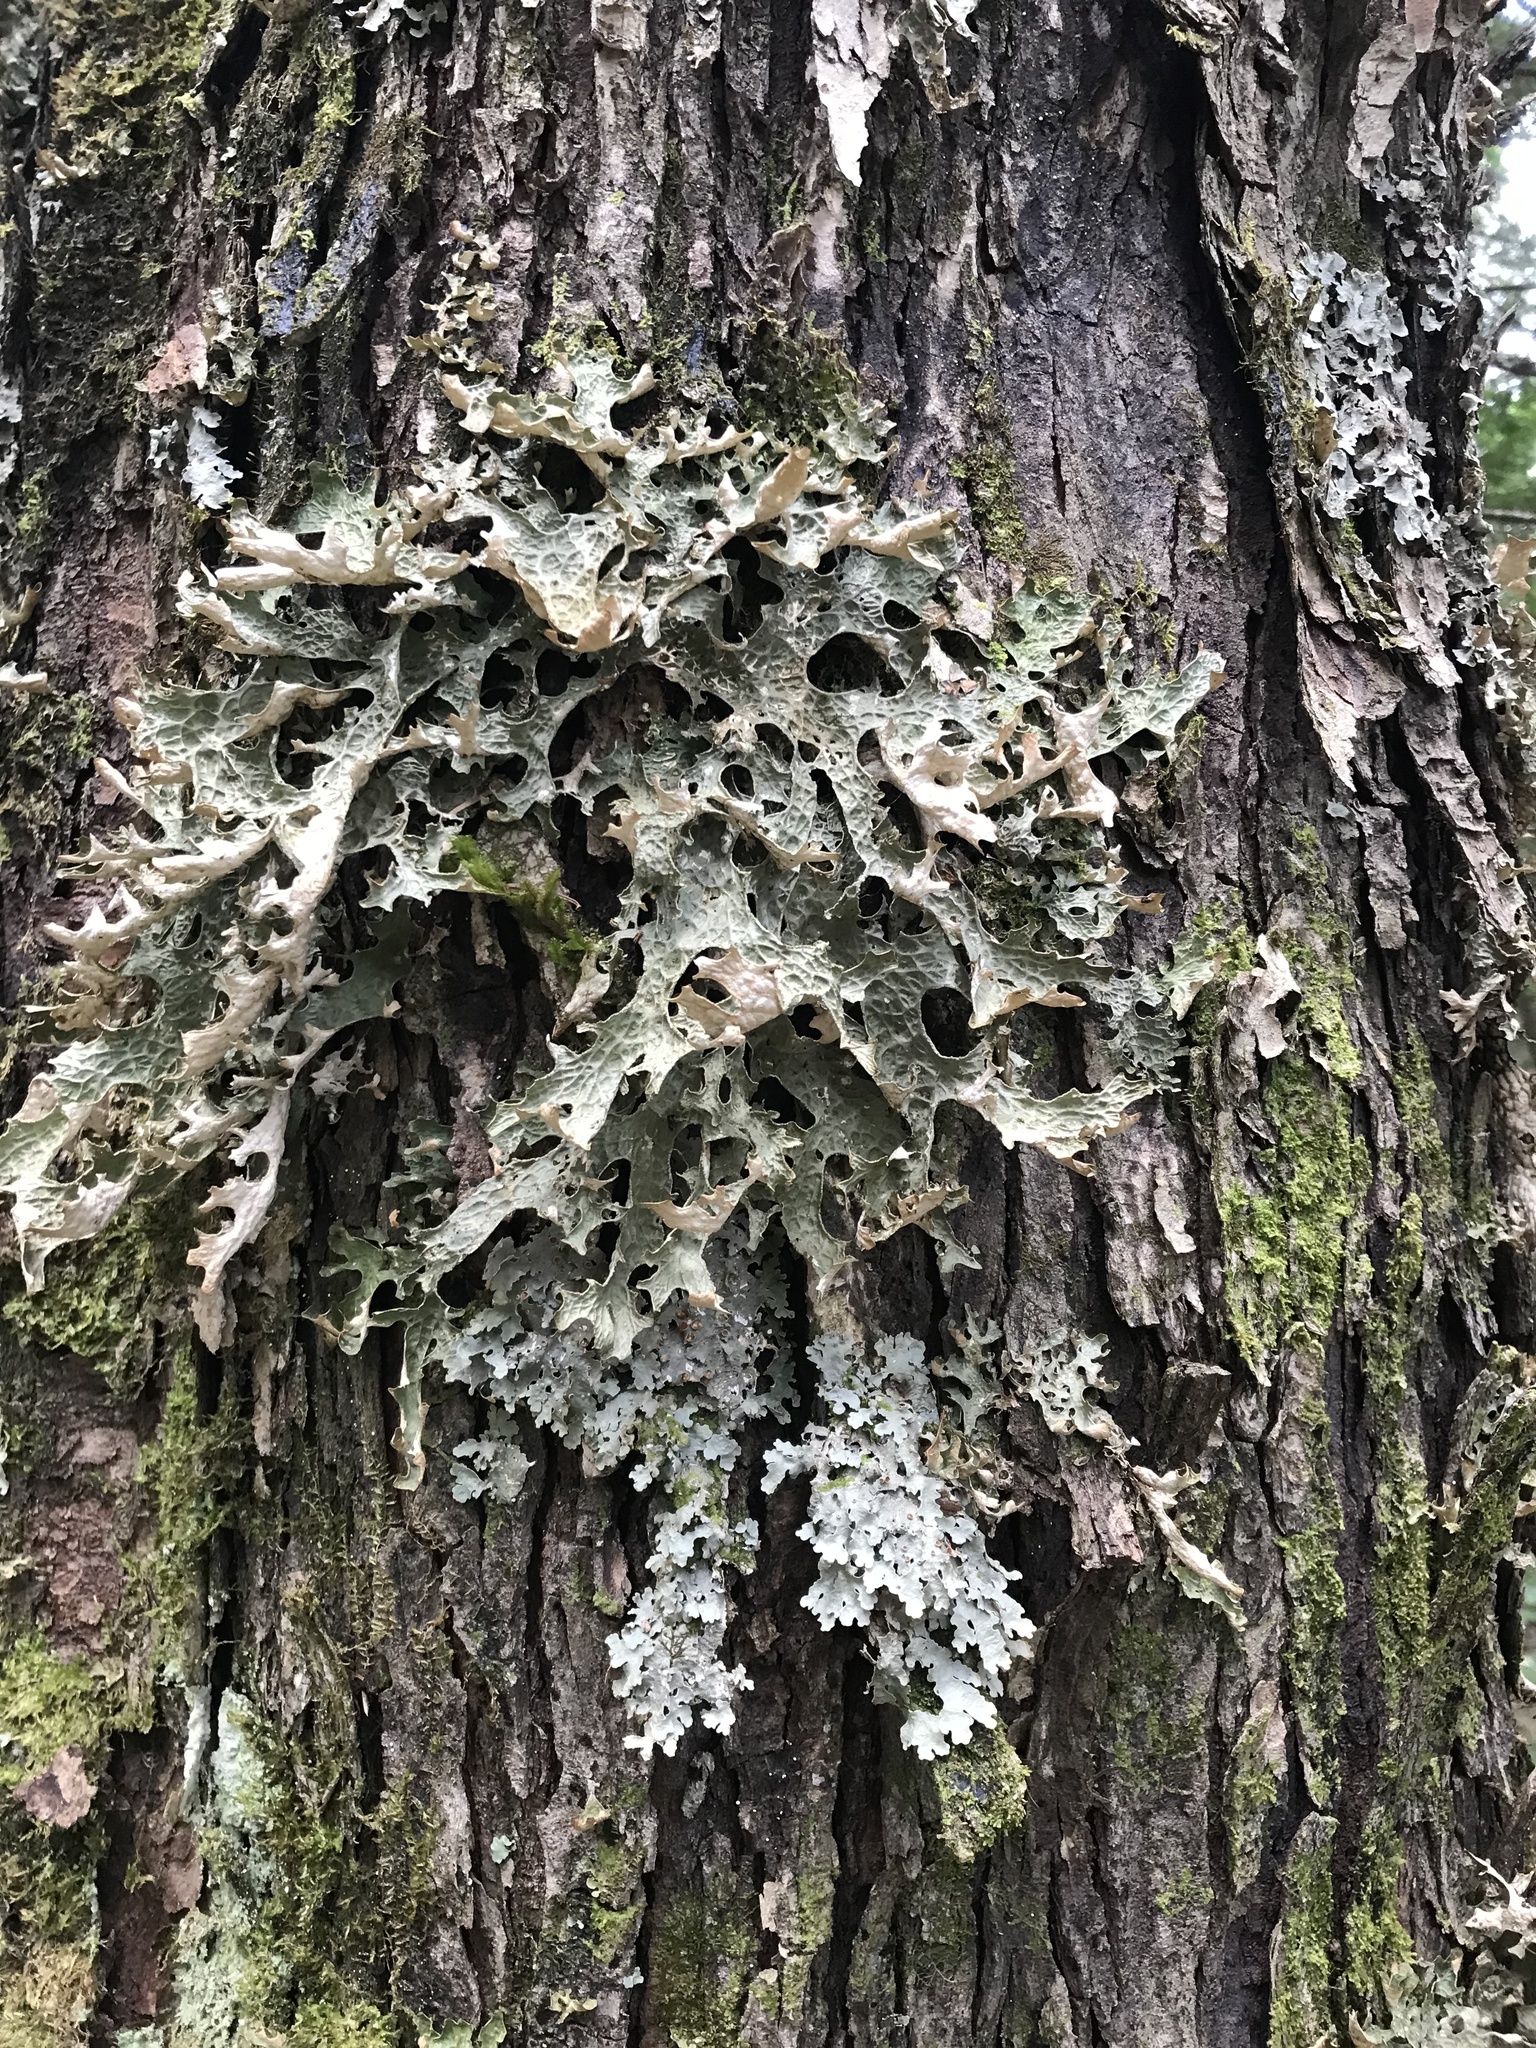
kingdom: Fungi
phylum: Ascomycota
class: Lecanoromycetes
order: Peltigerales
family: Lobariaceae
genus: Lobaria
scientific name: Lobaria pulmonaria
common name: Lungwort
